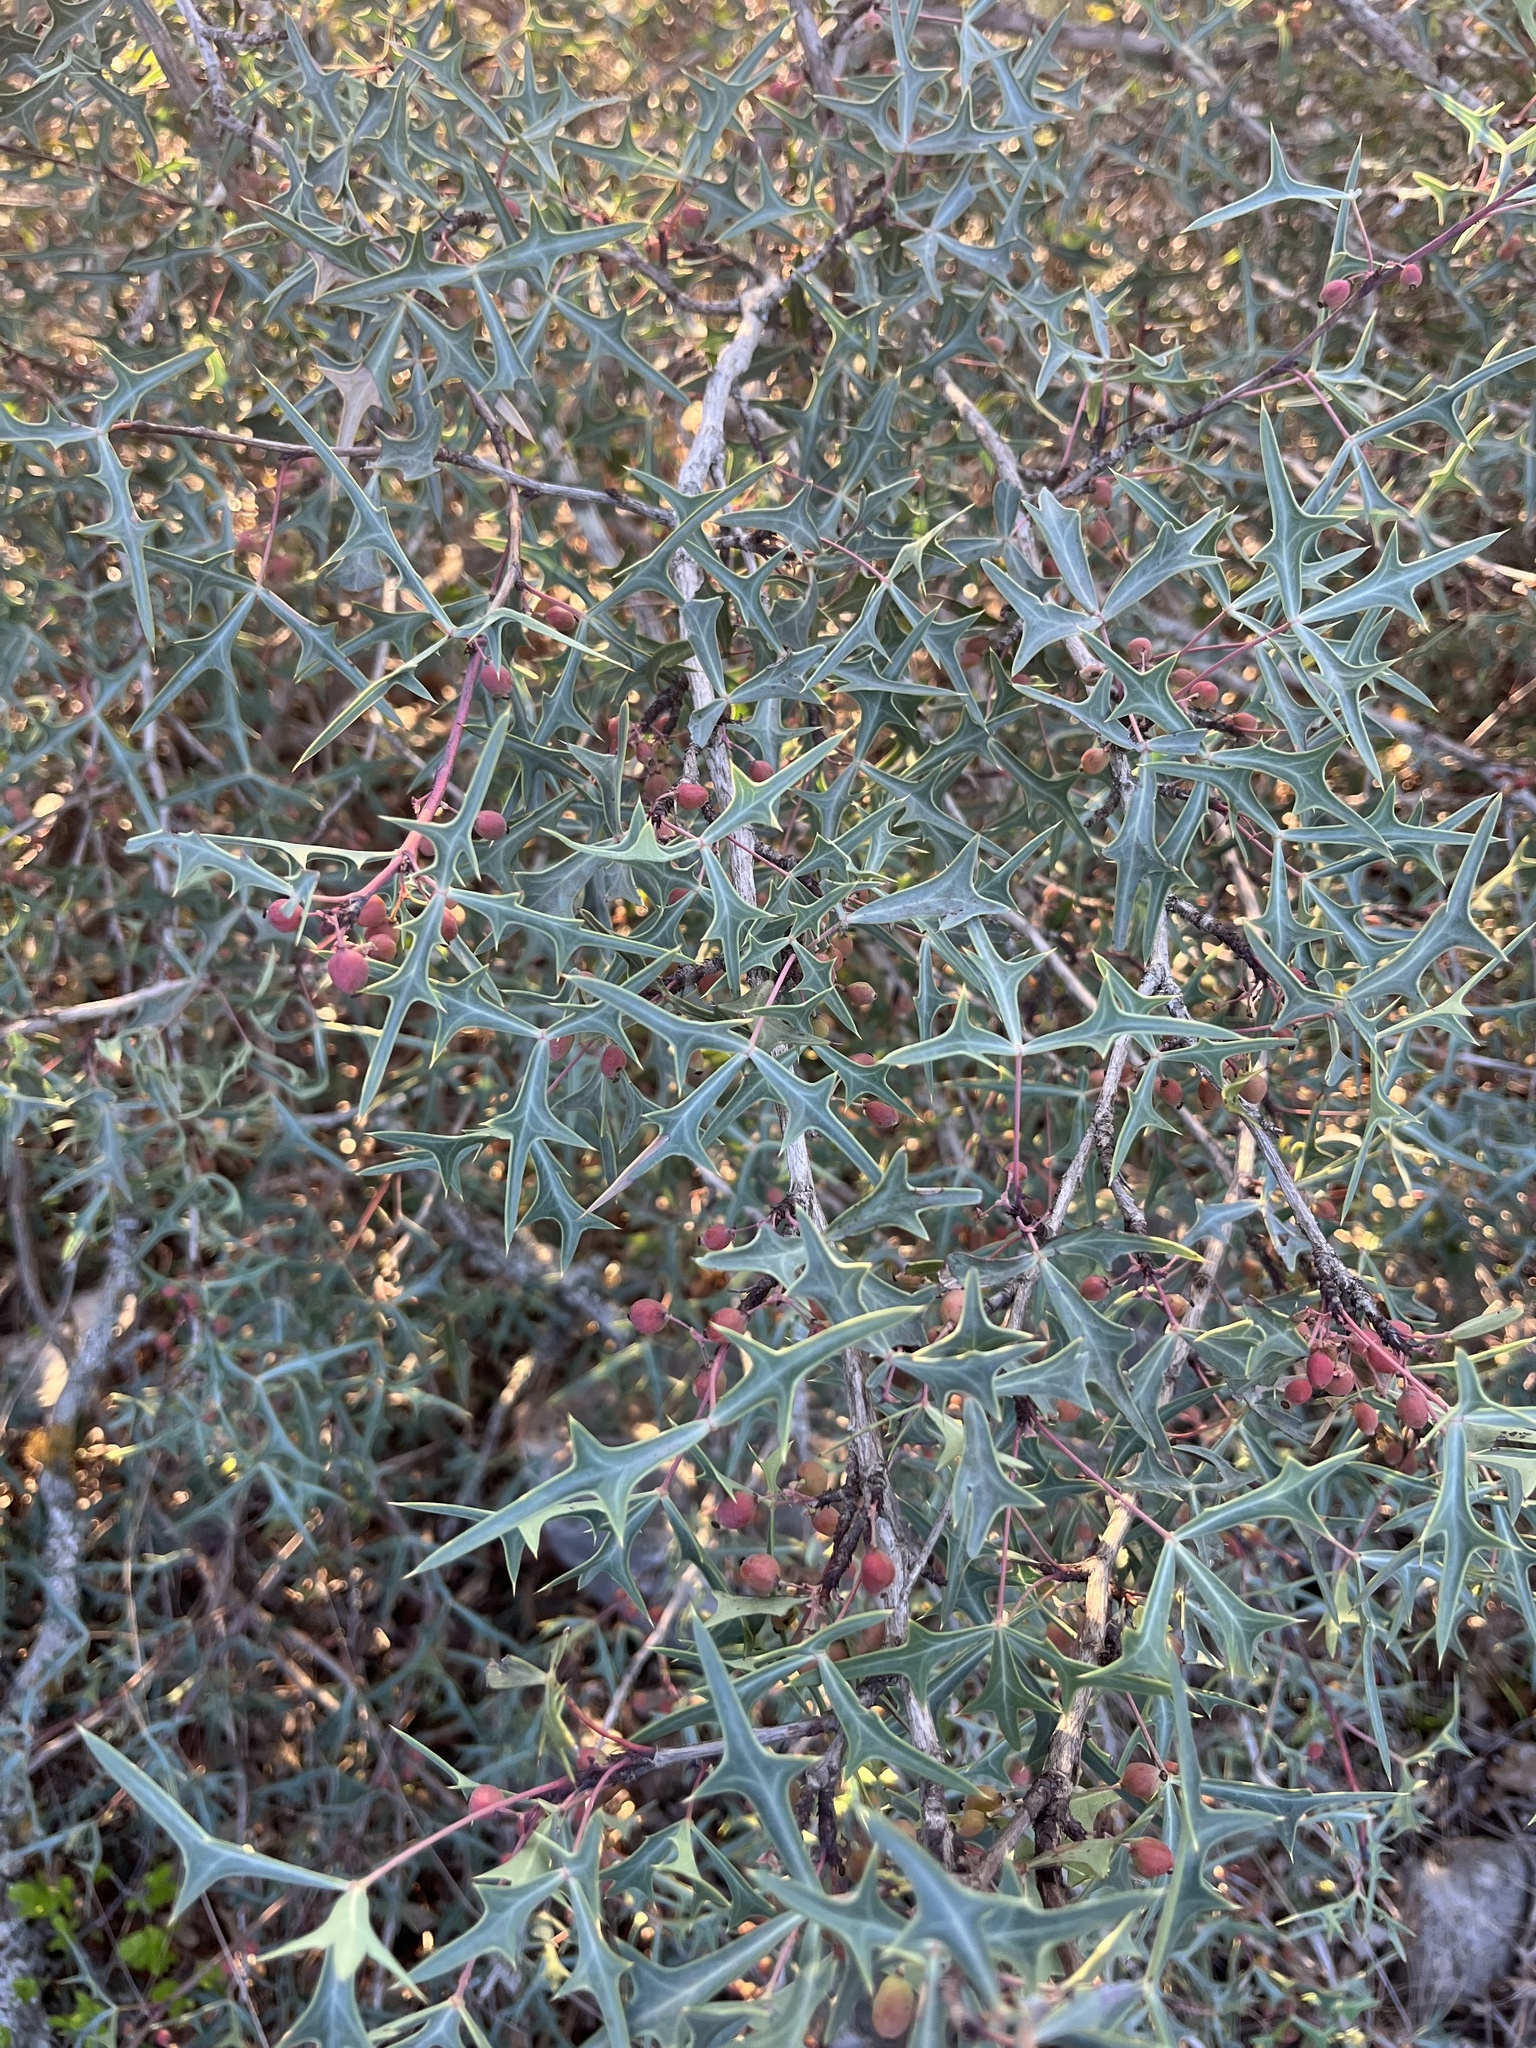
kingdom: Plantae
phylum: Tracheophyta
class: Magnoliopsida
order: Ranunculales
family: Berberidaceae
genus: Alloberberis
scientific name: Alloberberis trifoliolata
